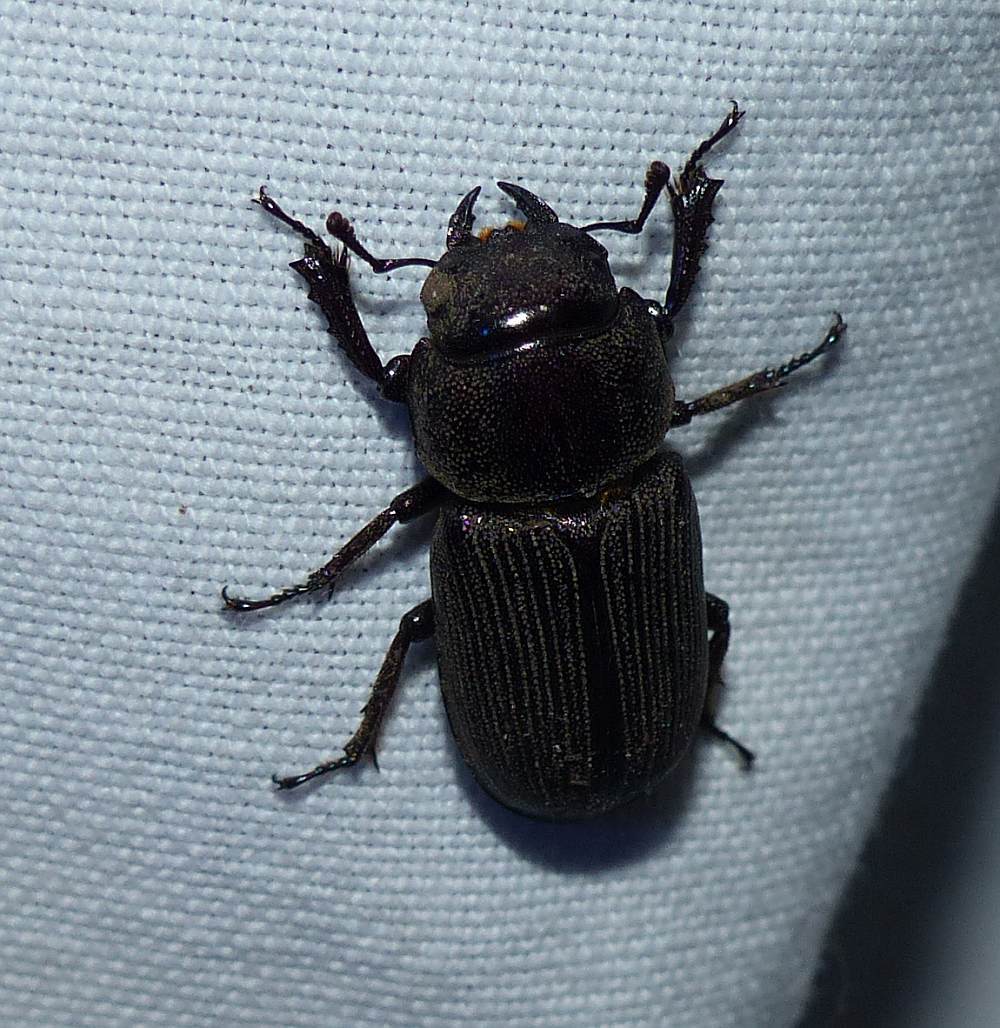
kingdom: Animalia
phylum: Arthropoda
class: Insecta
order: Coleoptera
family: Lucanidae
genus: Dorcus
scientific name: Dorcus parallelus
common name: Antelope beetle
